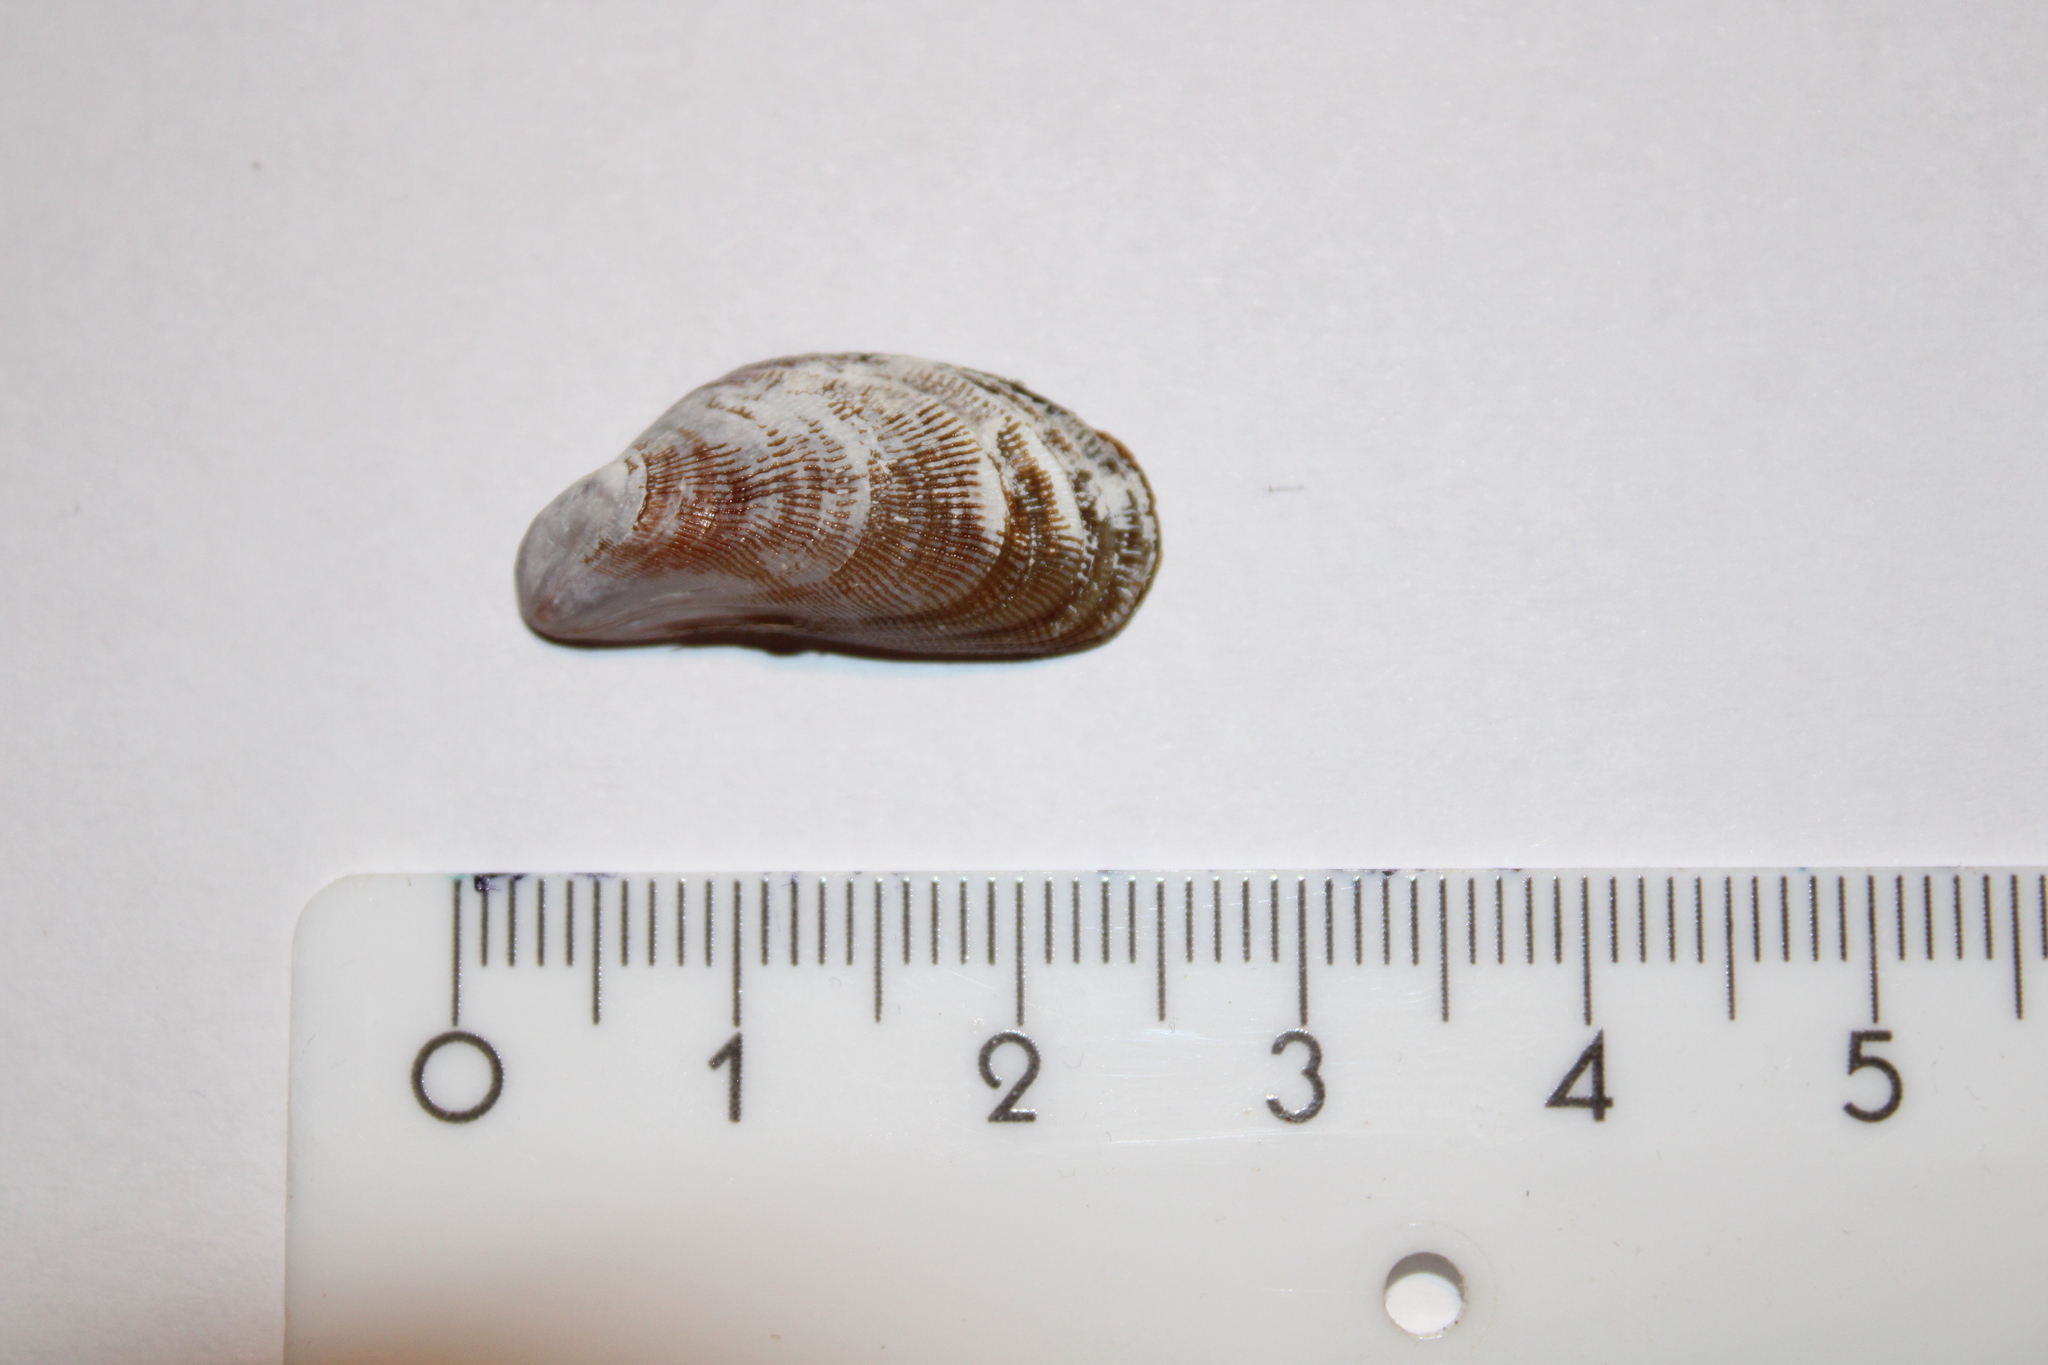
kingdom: Animalia
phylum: Mollusca
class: Bivalvia
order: Mytilida
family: Mytilidae
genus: Brachidontes
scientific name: Brachidontes pharaonis
